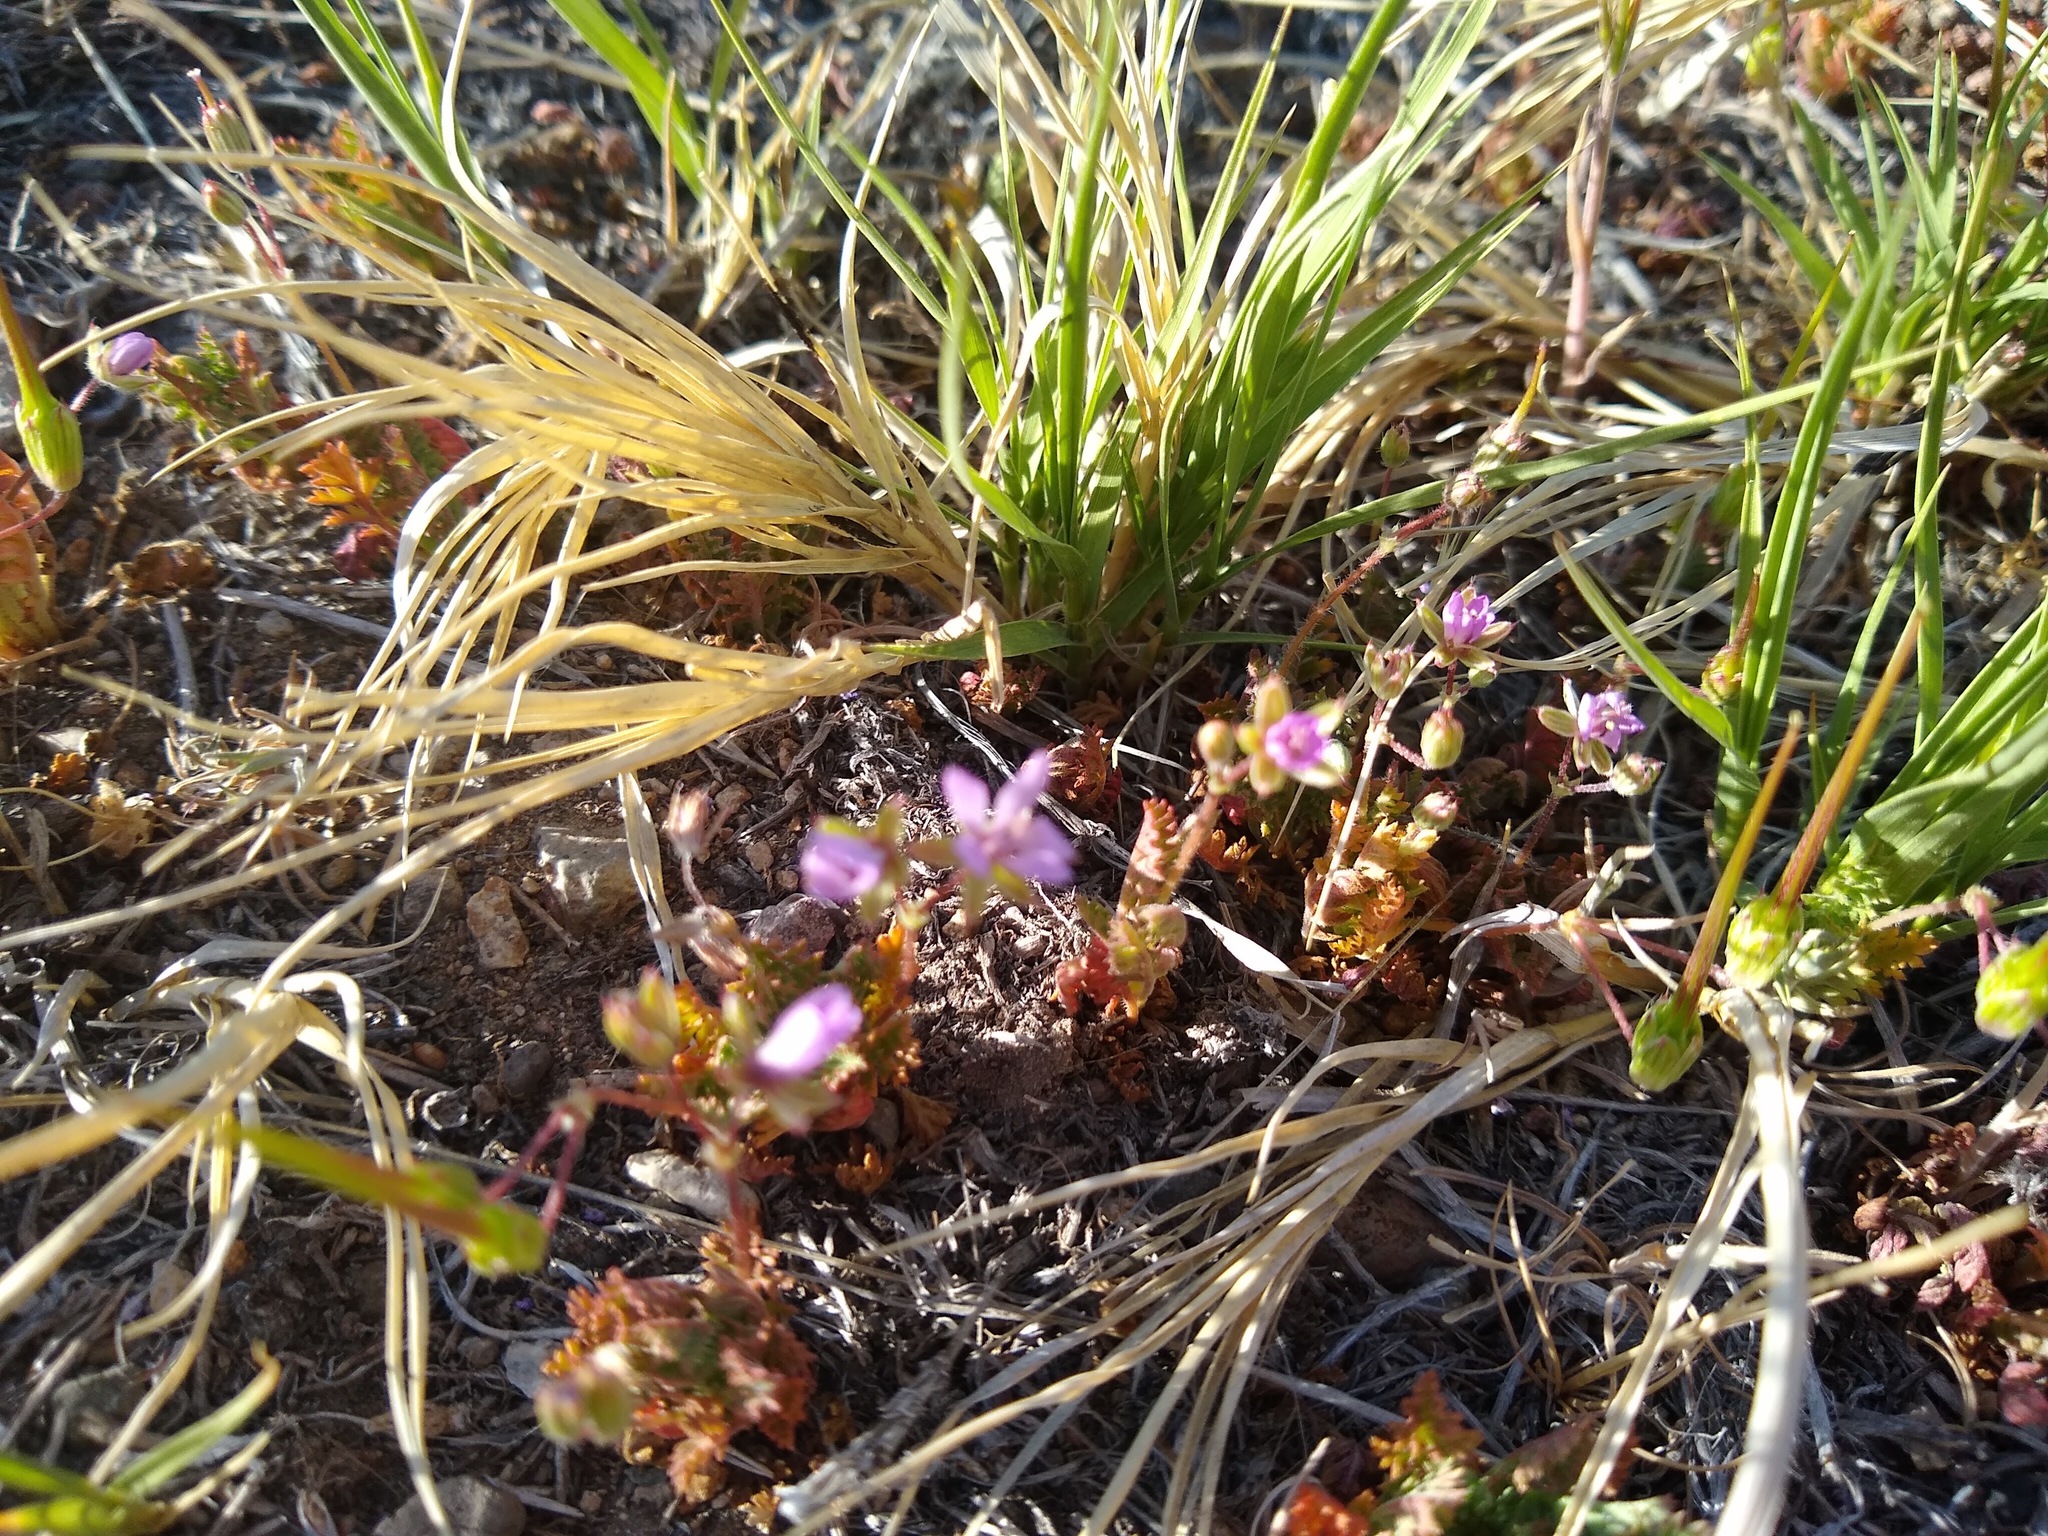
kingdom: Plantae
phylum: Tracheophyta
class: Magnoliopsida
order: Geraniales
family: Geraniaceae
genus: Erodium
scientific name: Erodium cicutarium
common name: Common stork's-bill
